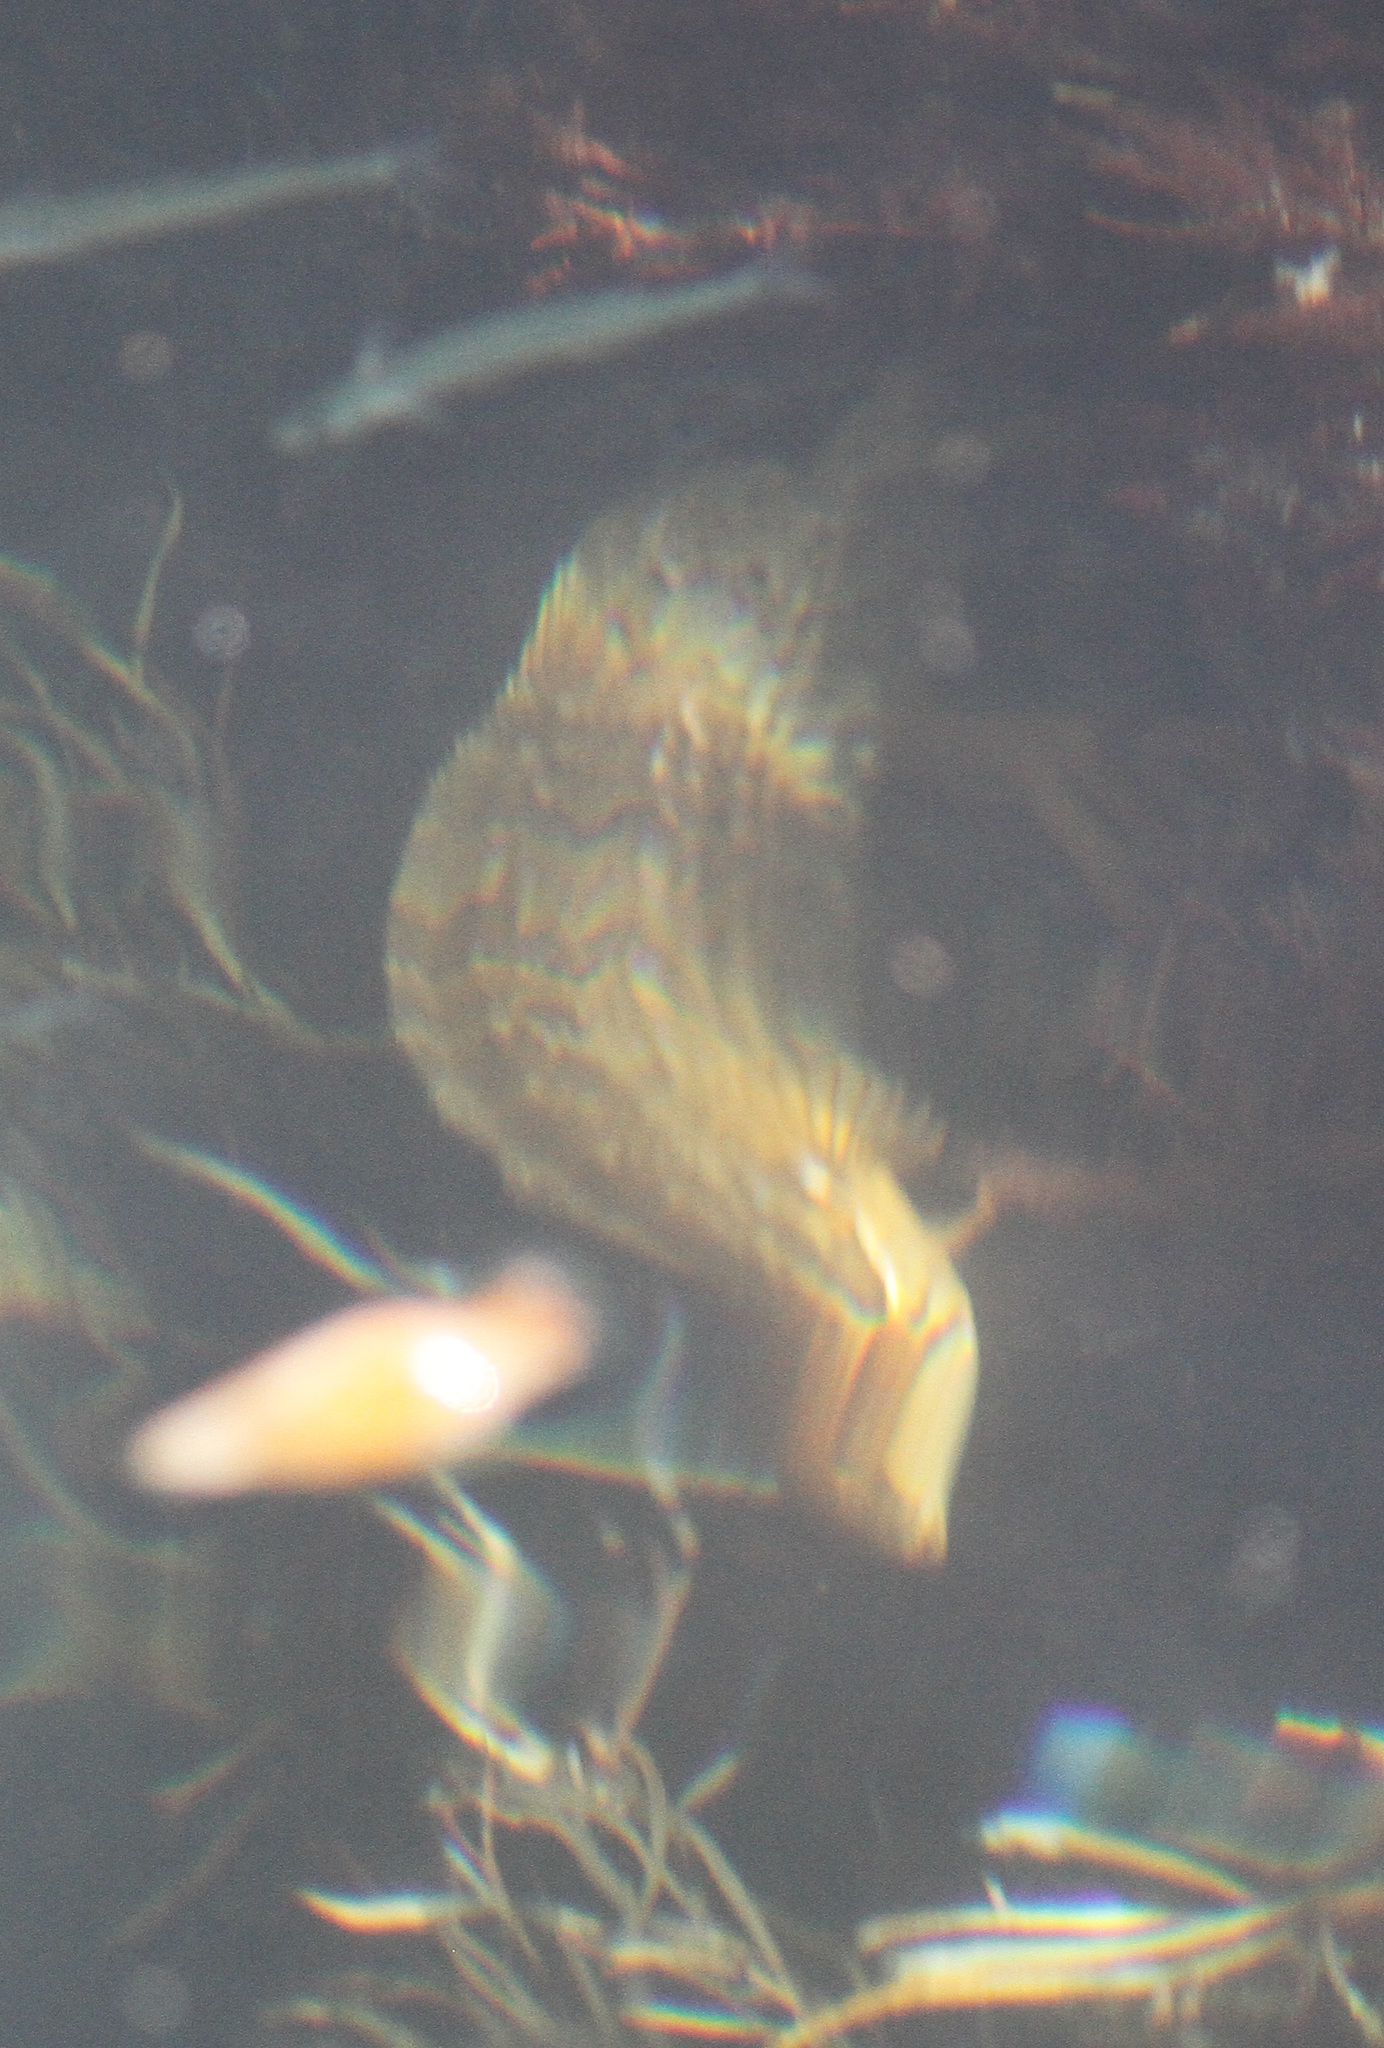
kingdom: Animalia
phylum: Chordata
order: Perciformes
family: Clinidae
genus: Heterostichus
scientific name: Heterostichus rostratus
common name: Giant kelpfish
